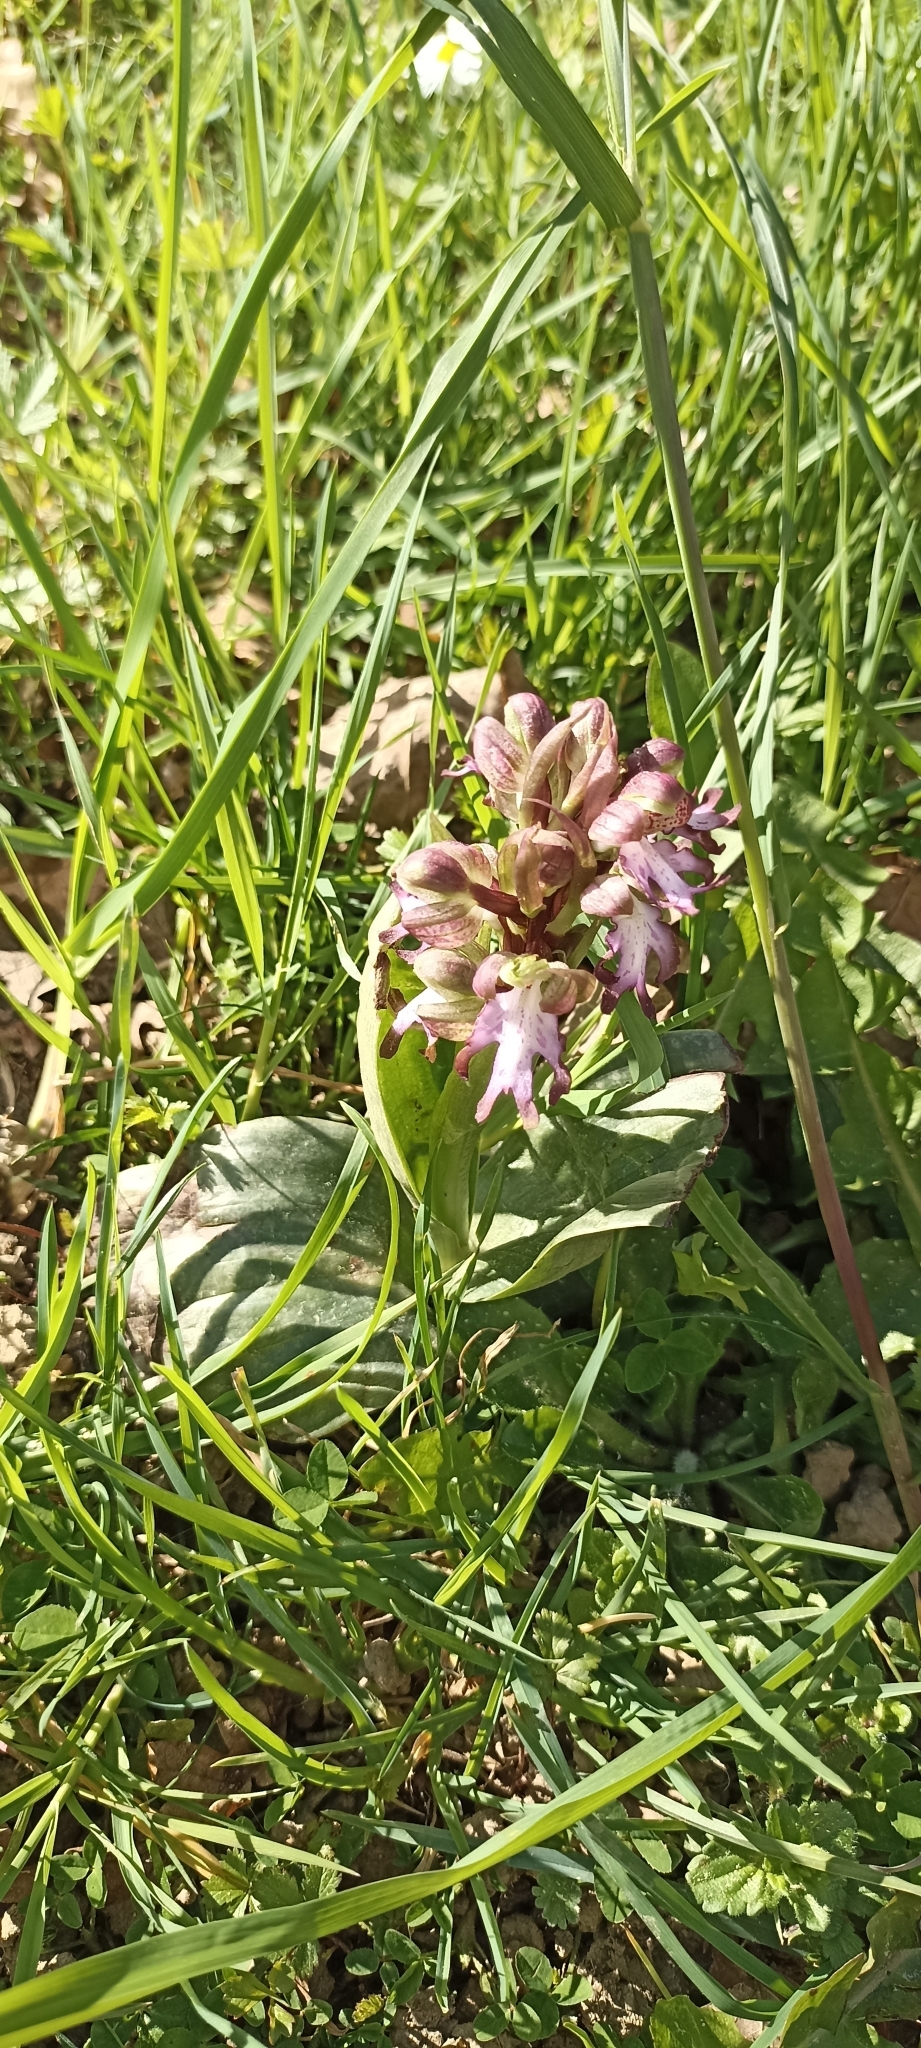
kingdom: Plantae
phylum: Tracheophyta
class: Liliopsida
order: Asparagales
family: Orchidaceae
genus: Himantoglossum
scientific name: Himantoglossum robertianum
